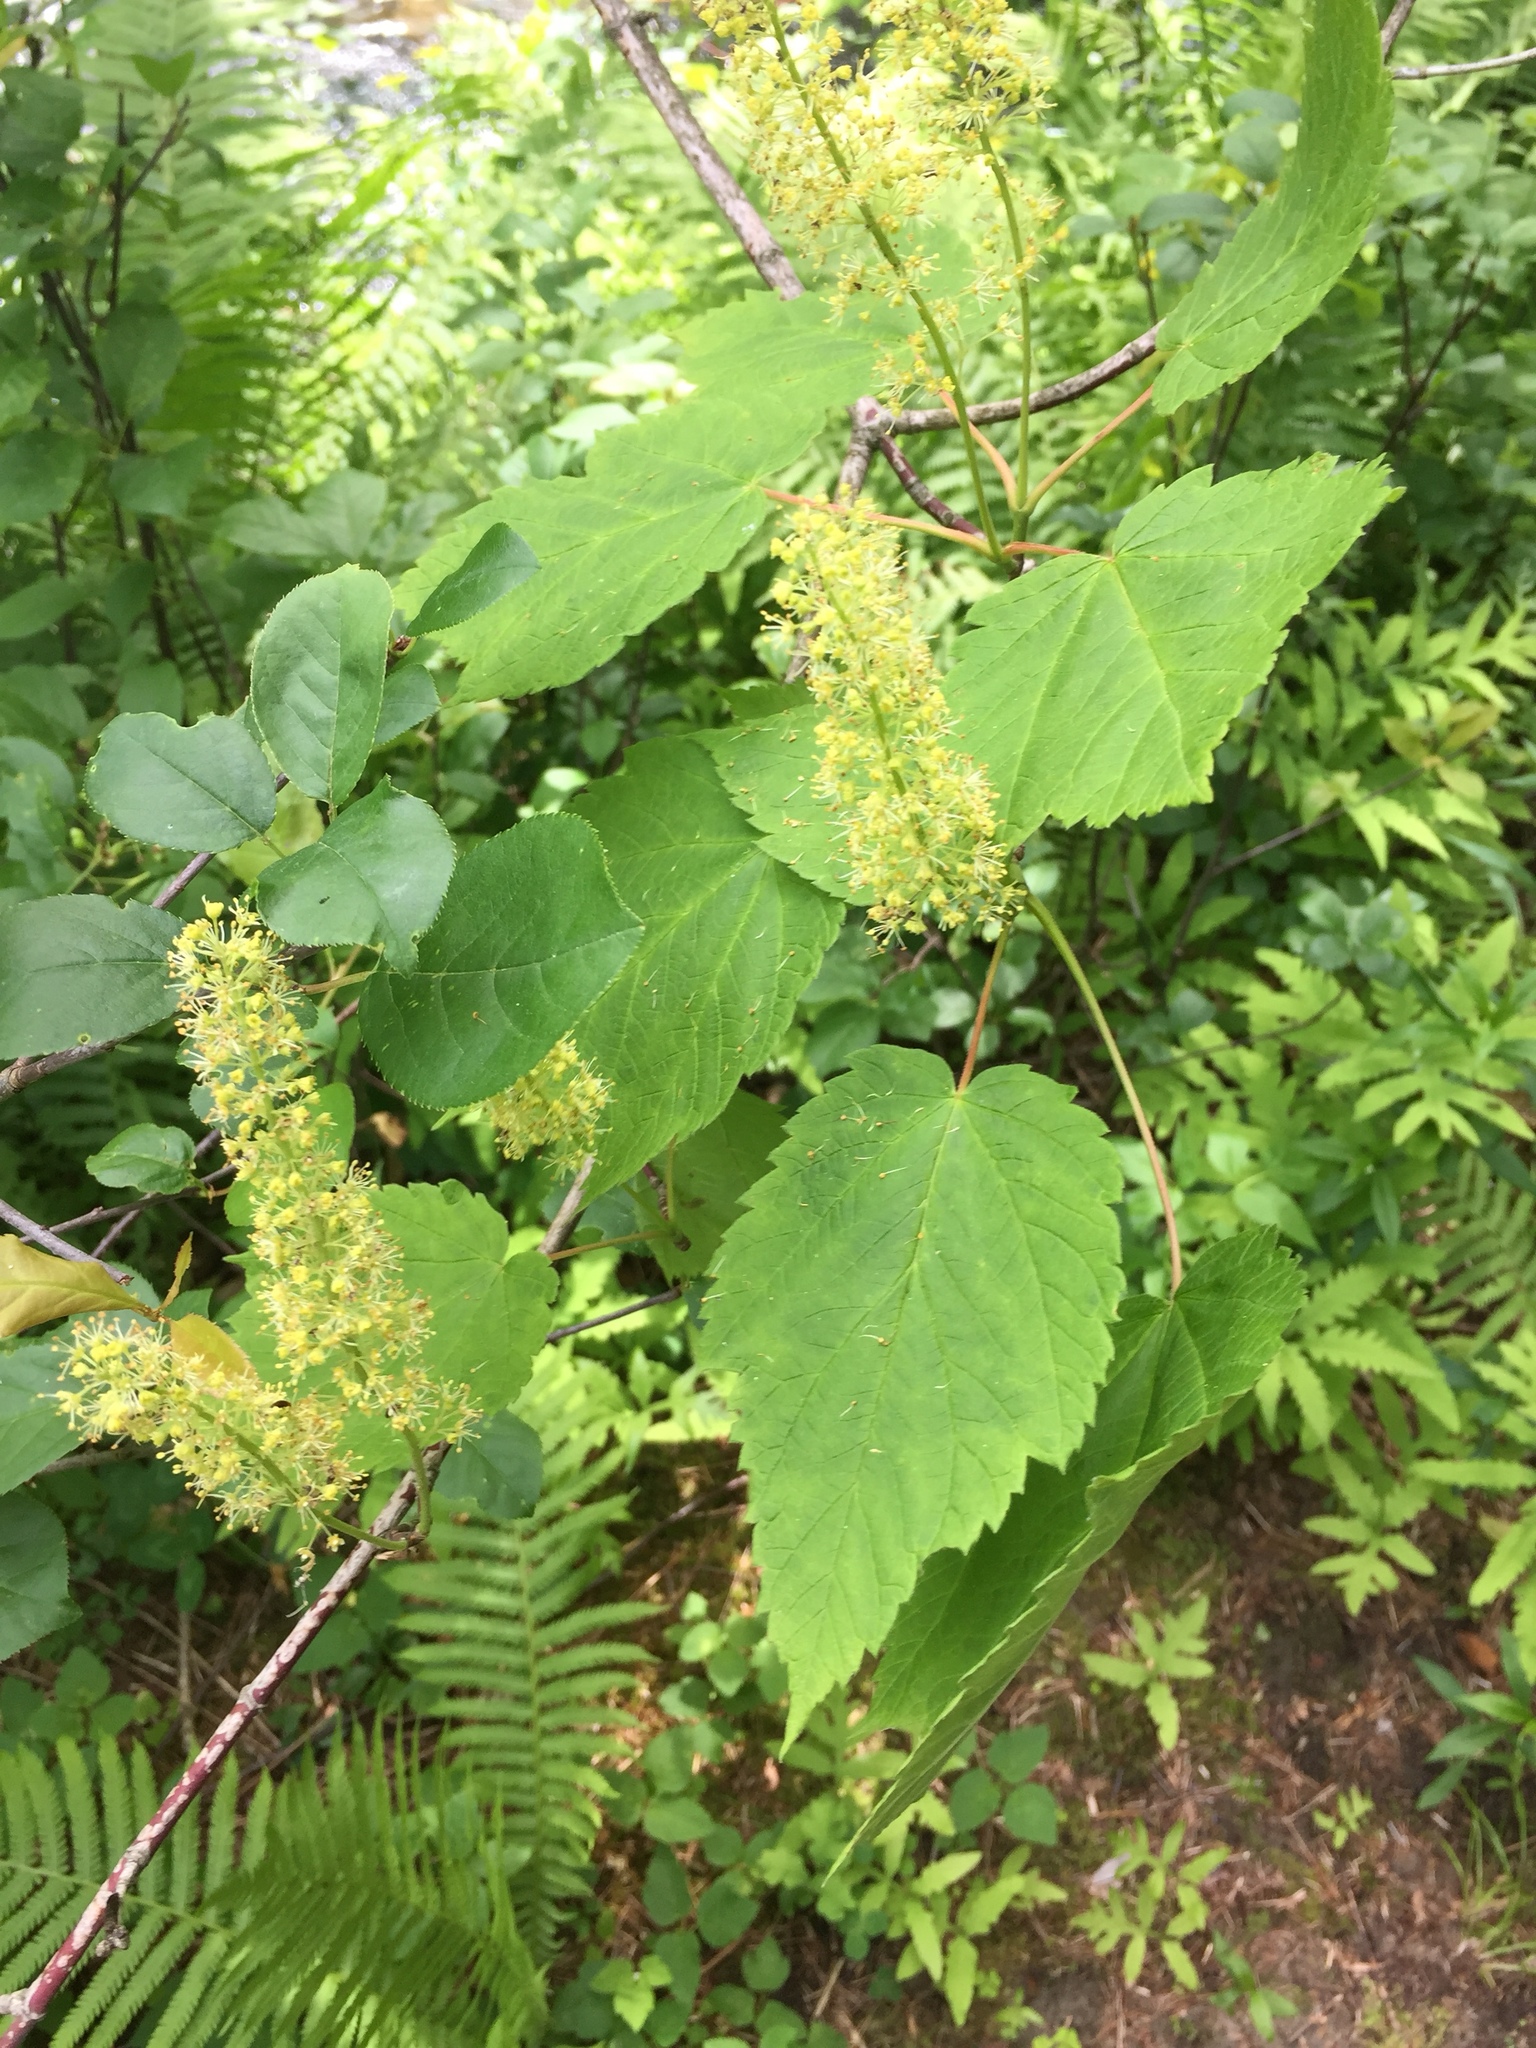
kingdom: Plantae
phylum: Tracheophyta
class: Magnoliopsida
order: Sapindales
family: Sapindaceae
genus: Acer
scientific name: Acer spicatum
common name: Mountain maple
